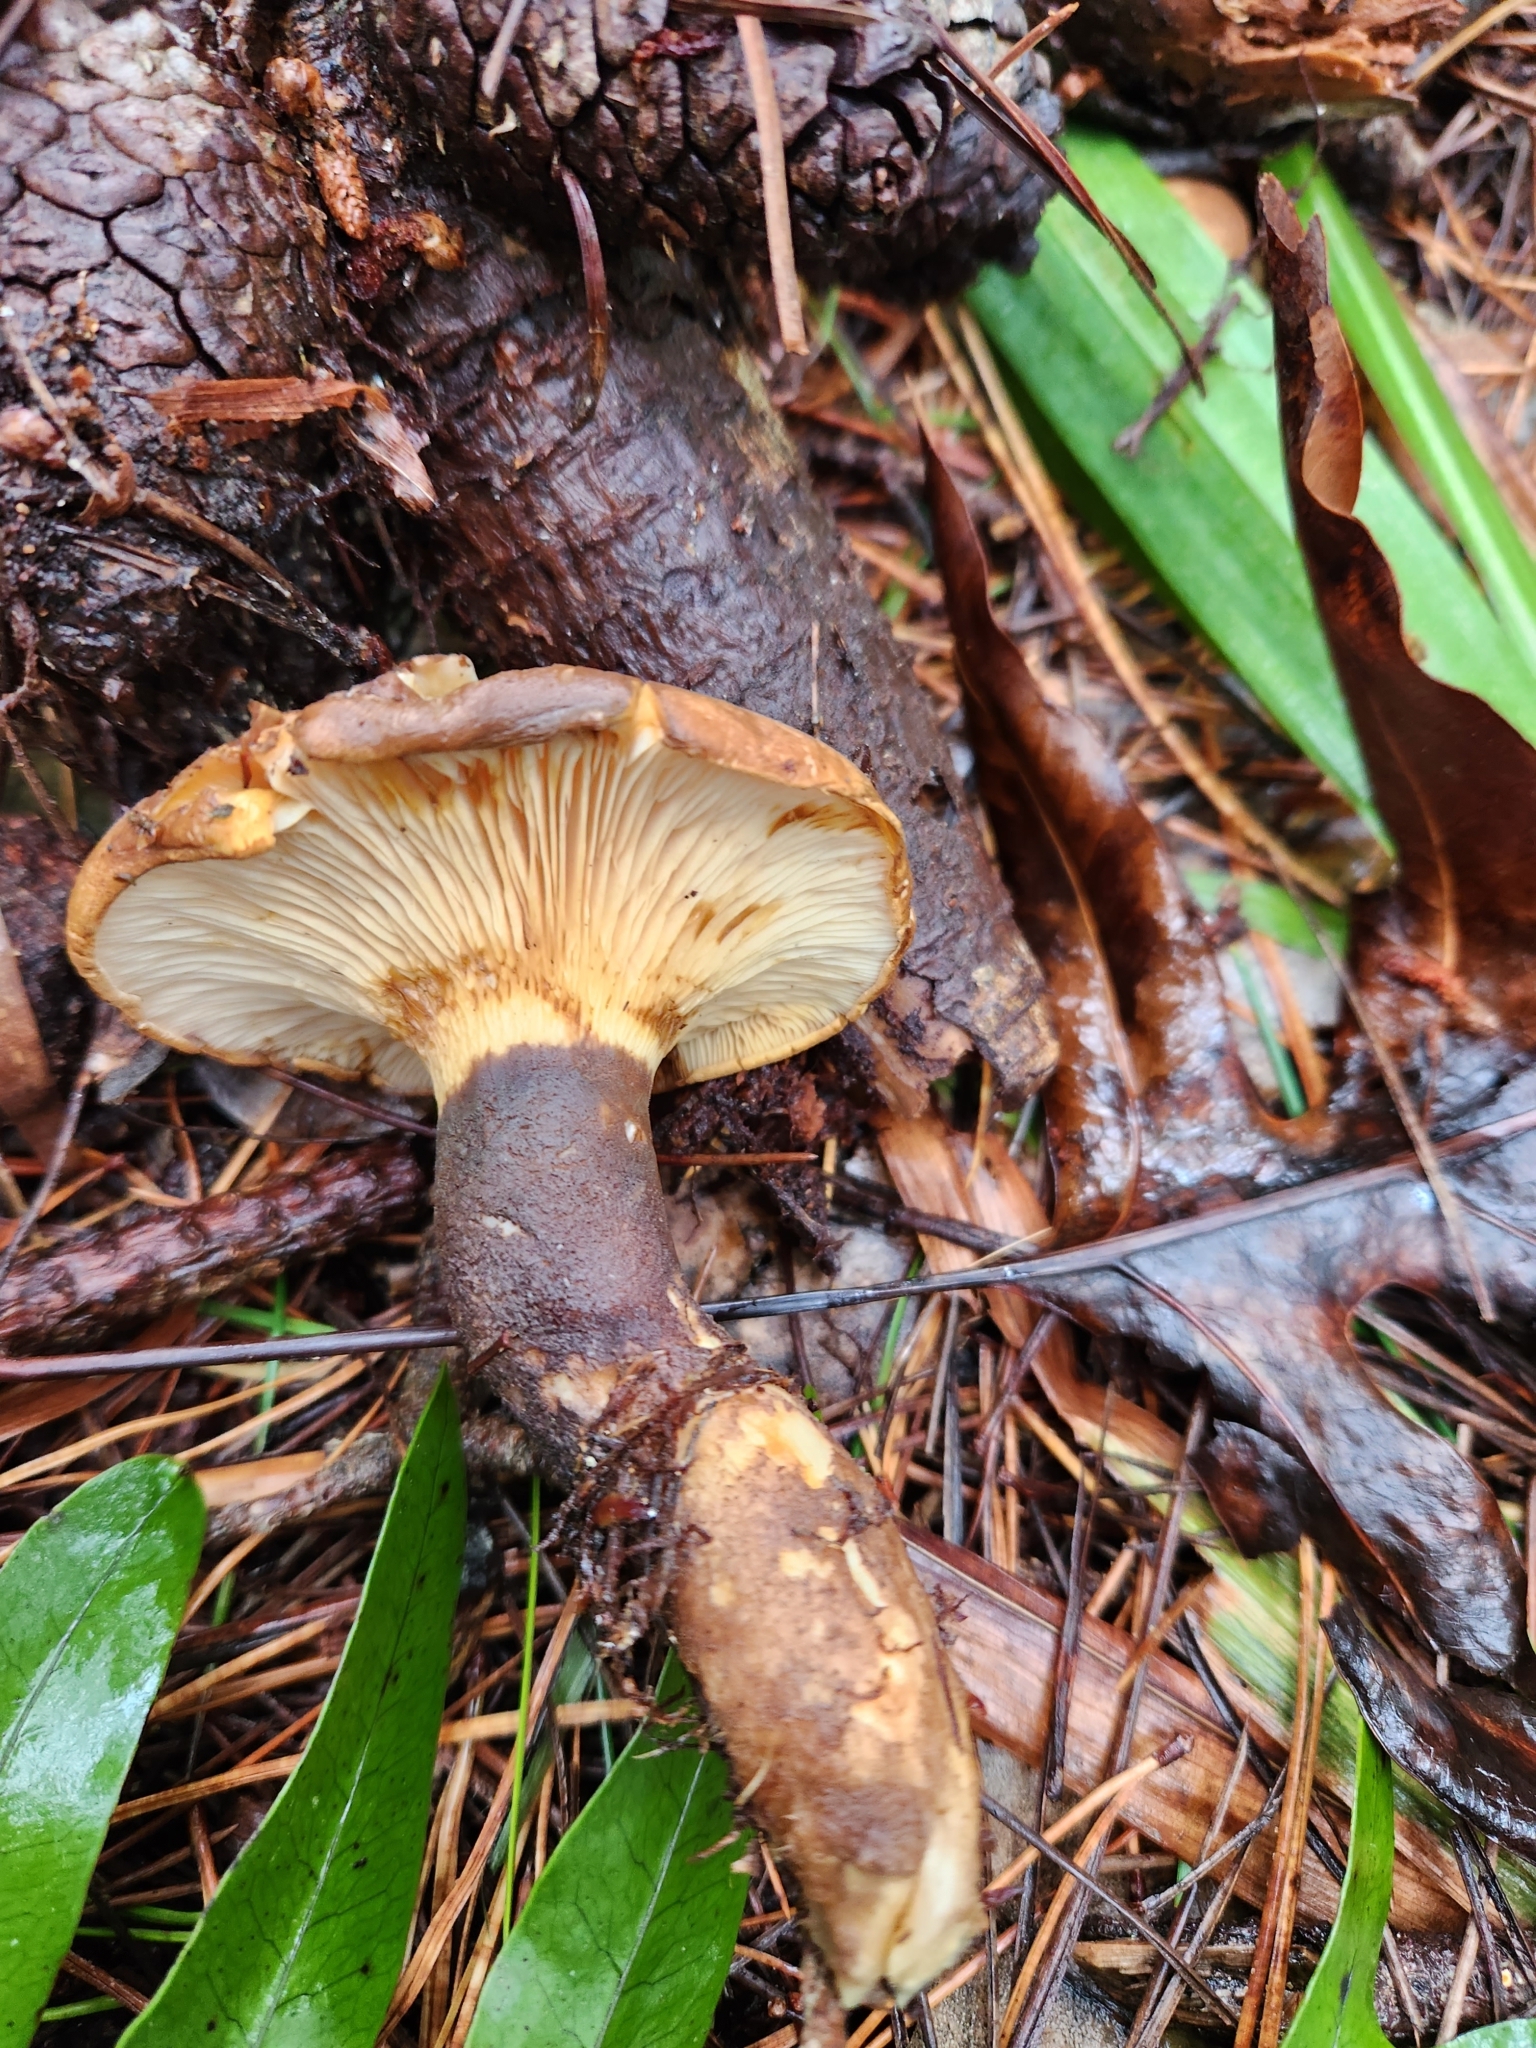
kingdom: Fungi
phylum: Basidiomycota
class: Agaricomycetes
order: Boletales
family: Tapinellaceae
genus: Tapinella
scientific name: Tapinella atrotomentosa
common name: Velvet rollrim
